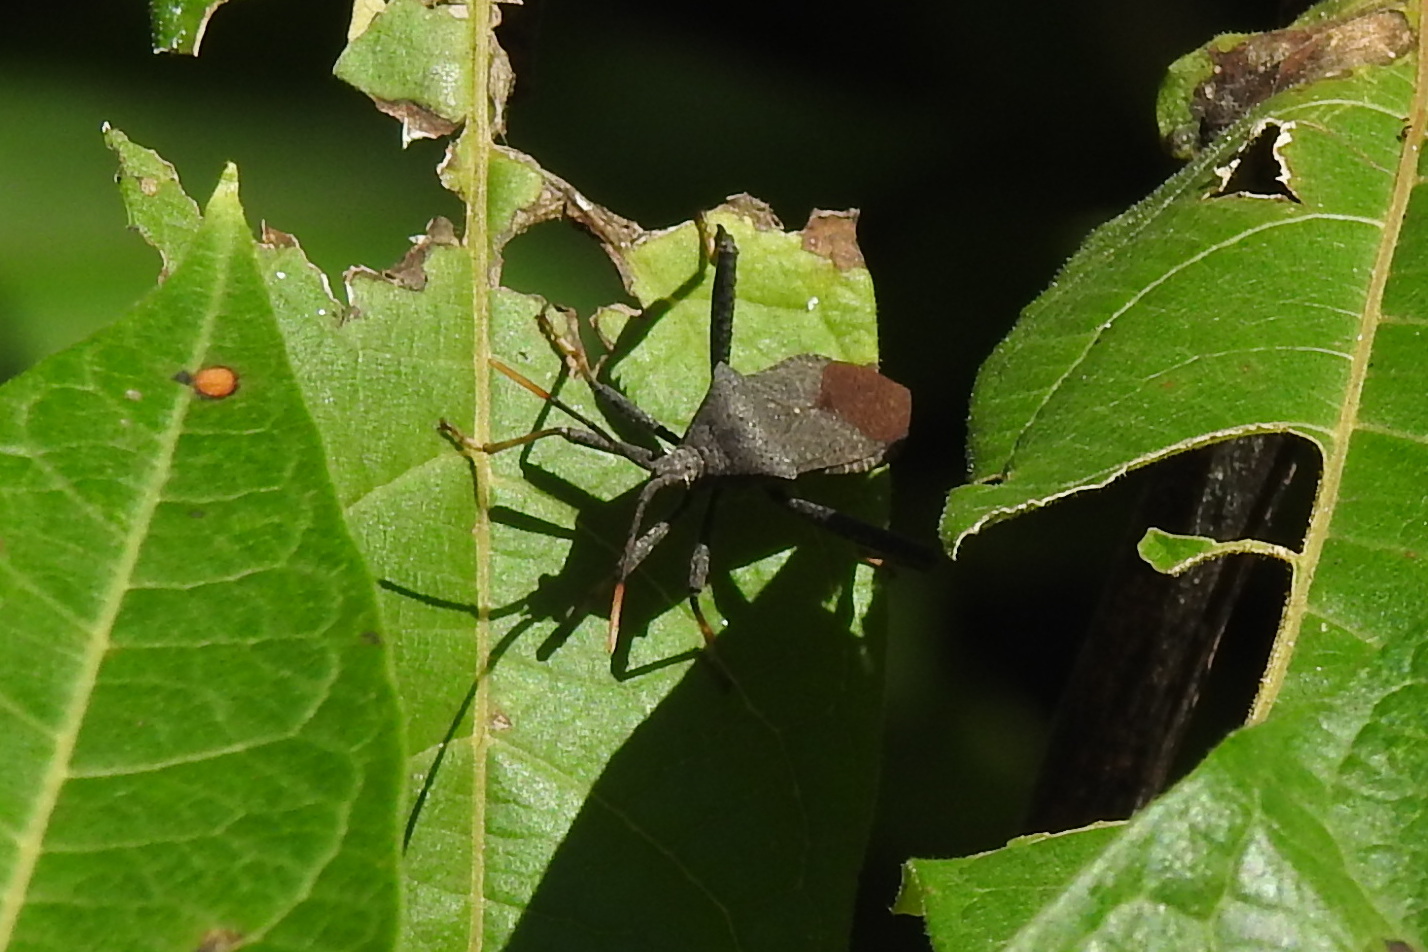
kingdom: Animalia
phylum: Arthropoda
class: Insecta
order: Hemiptera
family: Coreidae
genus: Acanthocephala
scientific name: Acanthocephala terminalis
